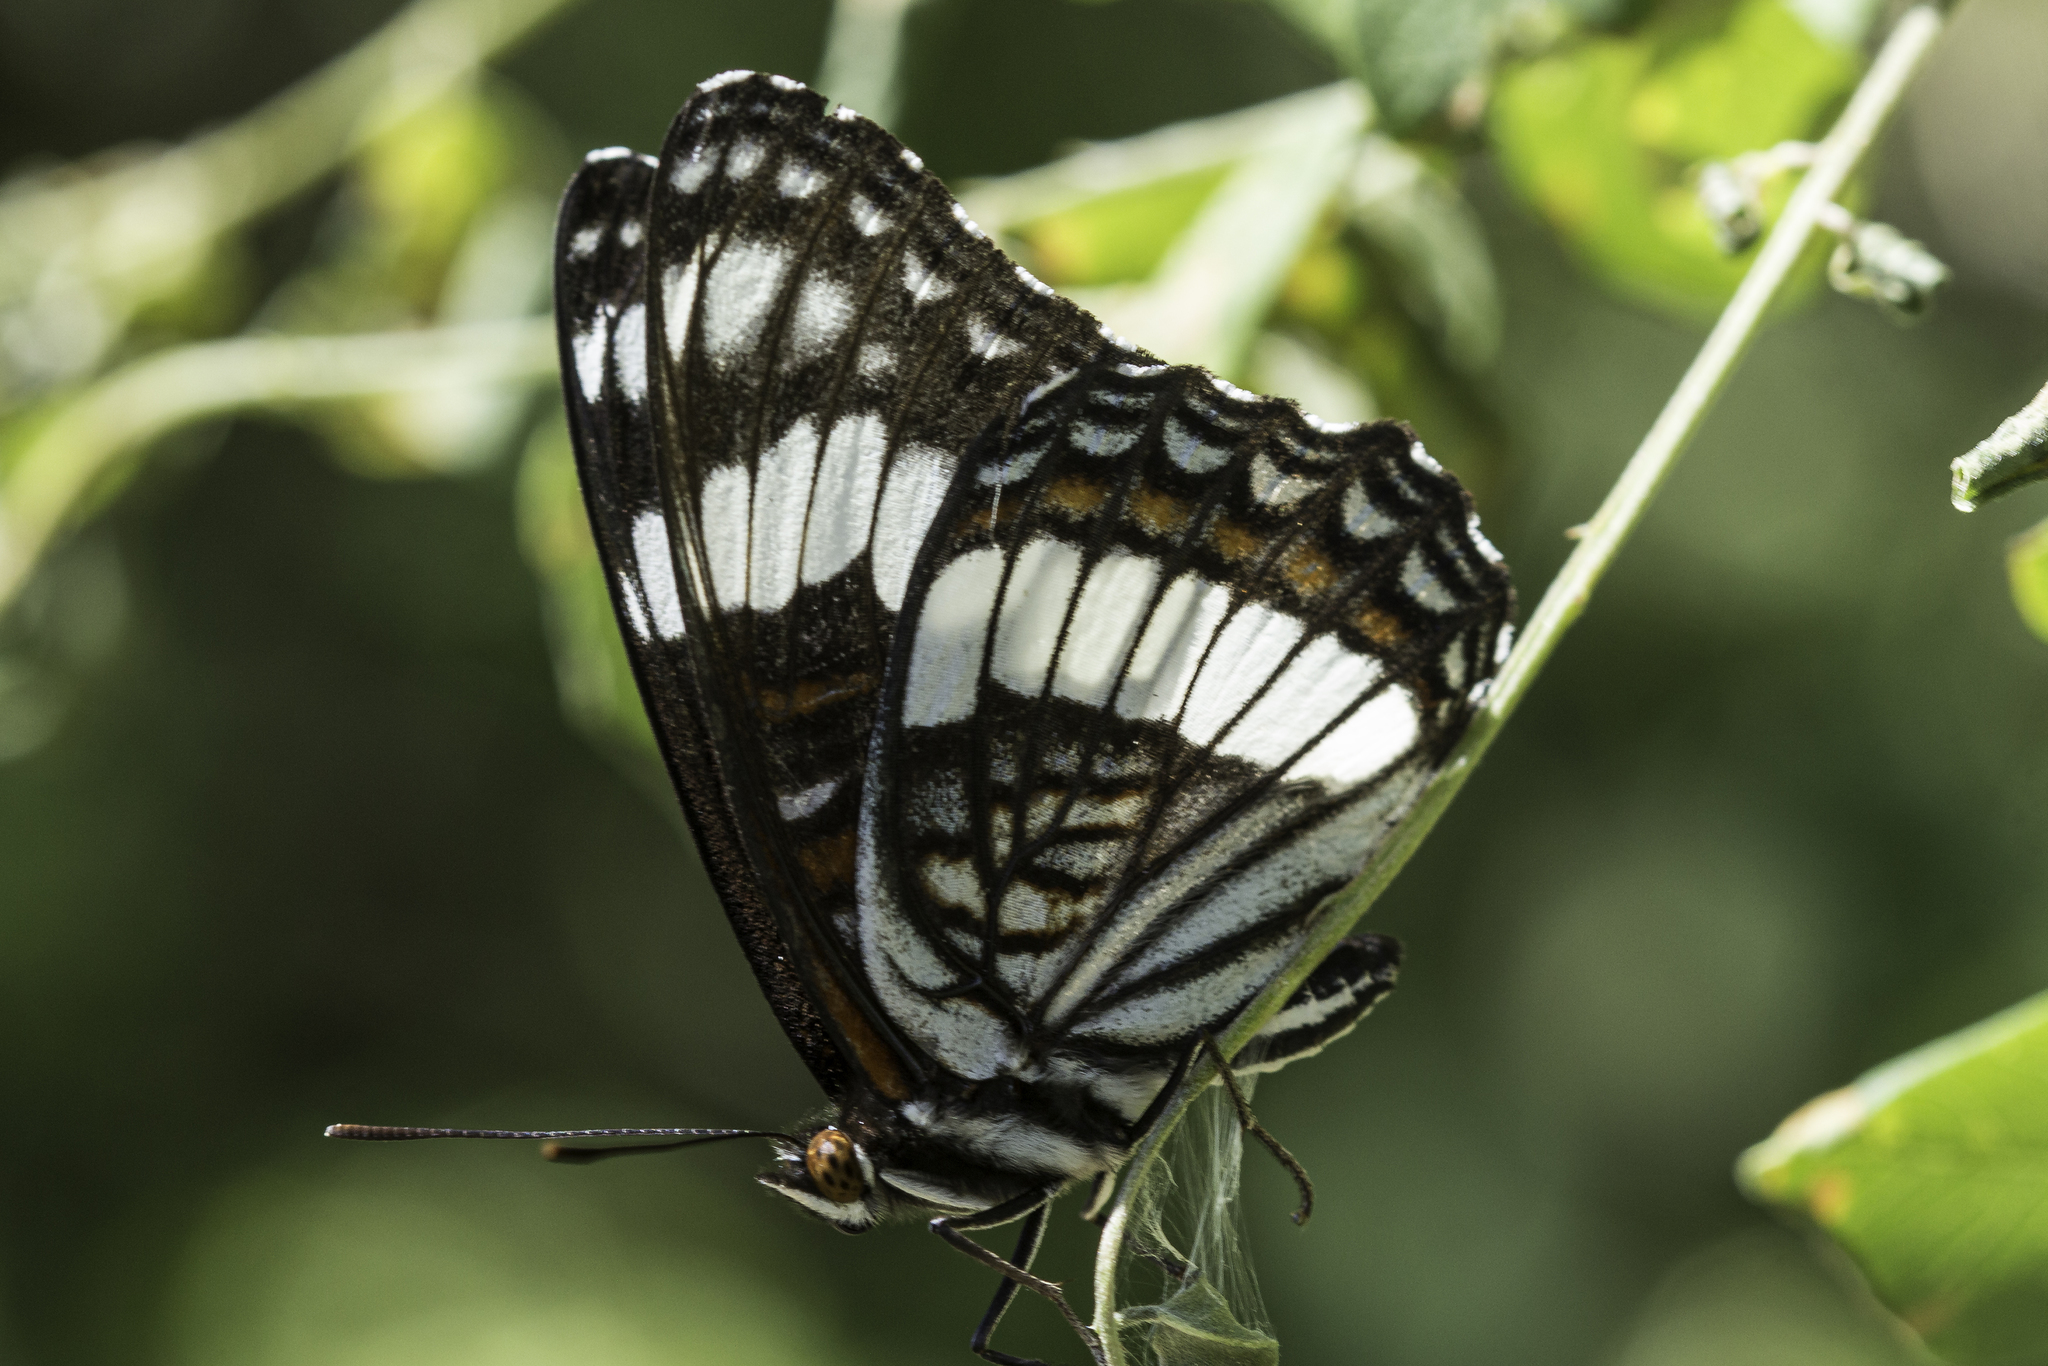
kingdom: Animalia
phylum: Arthropoda
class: Insecta
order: Lepidoptera
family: Nymphalidae
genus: Limenitis
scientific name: Limenitis weidemeyerii
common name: Weidemeyer's admiral
